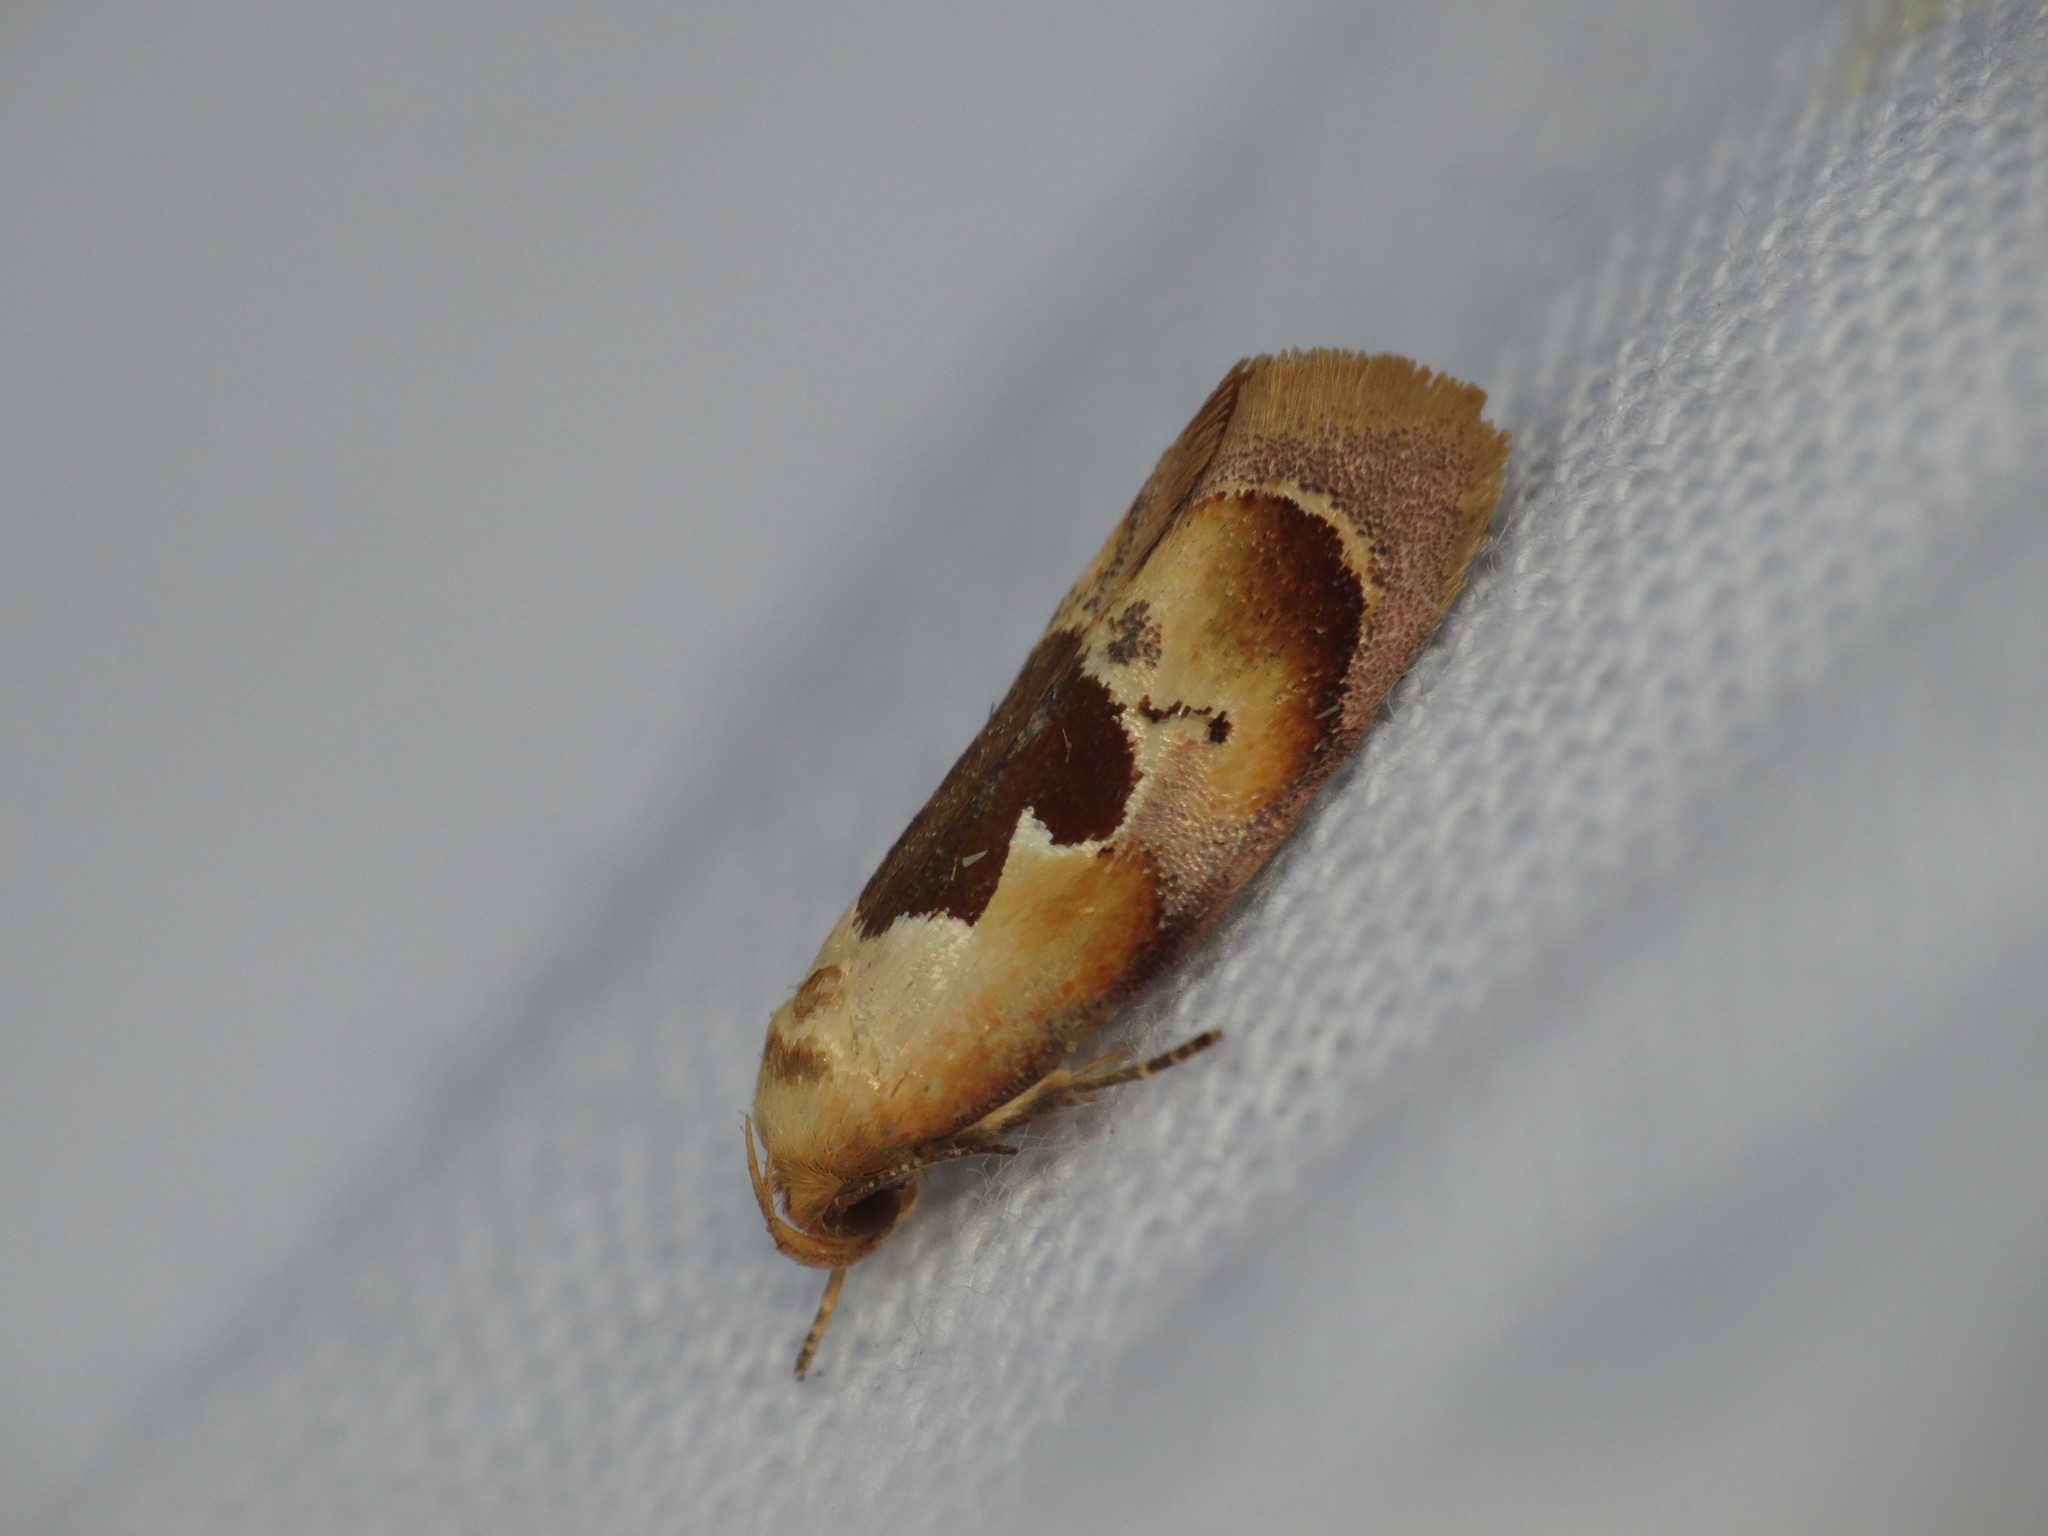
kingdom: Animalia
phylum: Arthropoda
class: Insecta
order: Lepidoptera
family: Oecophoridae
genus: Hoplomorpha
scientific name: Hoplomorpha camelaea
